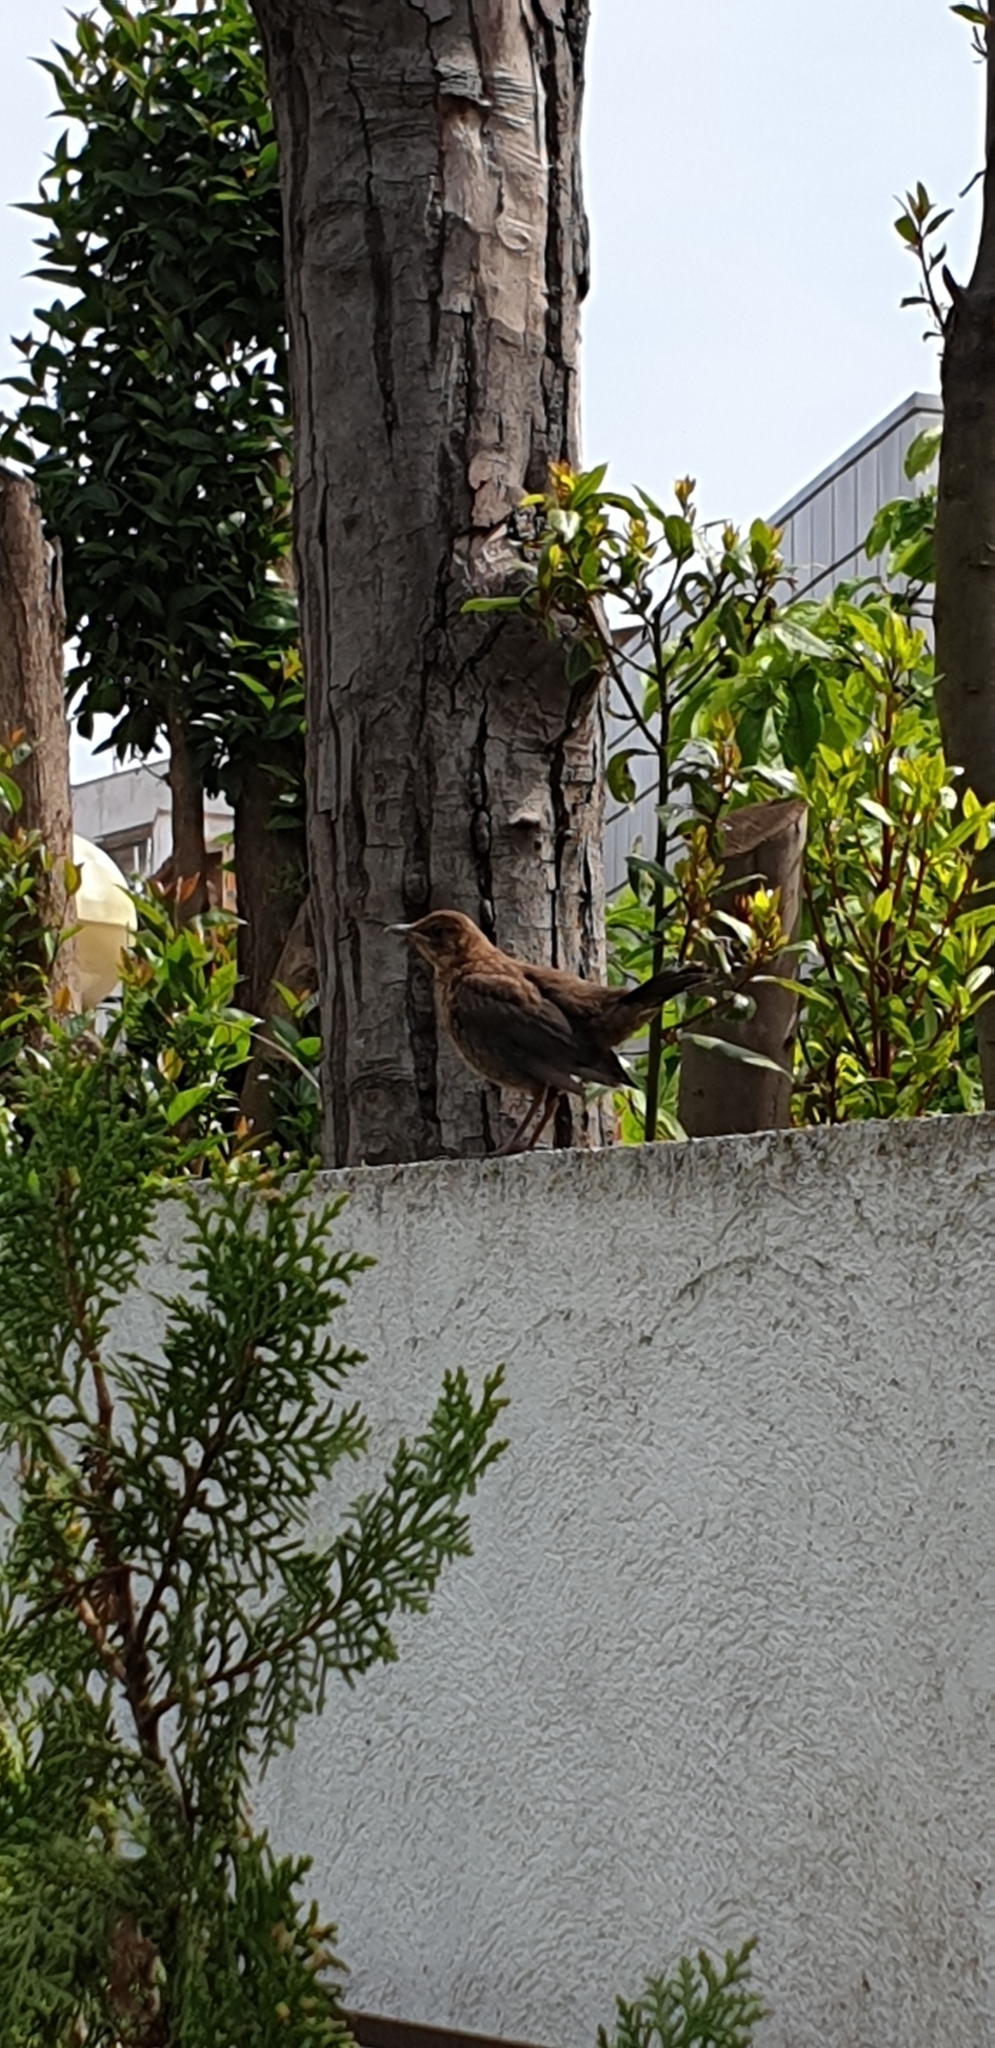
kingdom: Animalia
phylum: Chordata
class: Aves
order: Passeriformes
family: Turdidae
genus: Turdus
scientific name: Turdus merula
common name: Common blackbird
